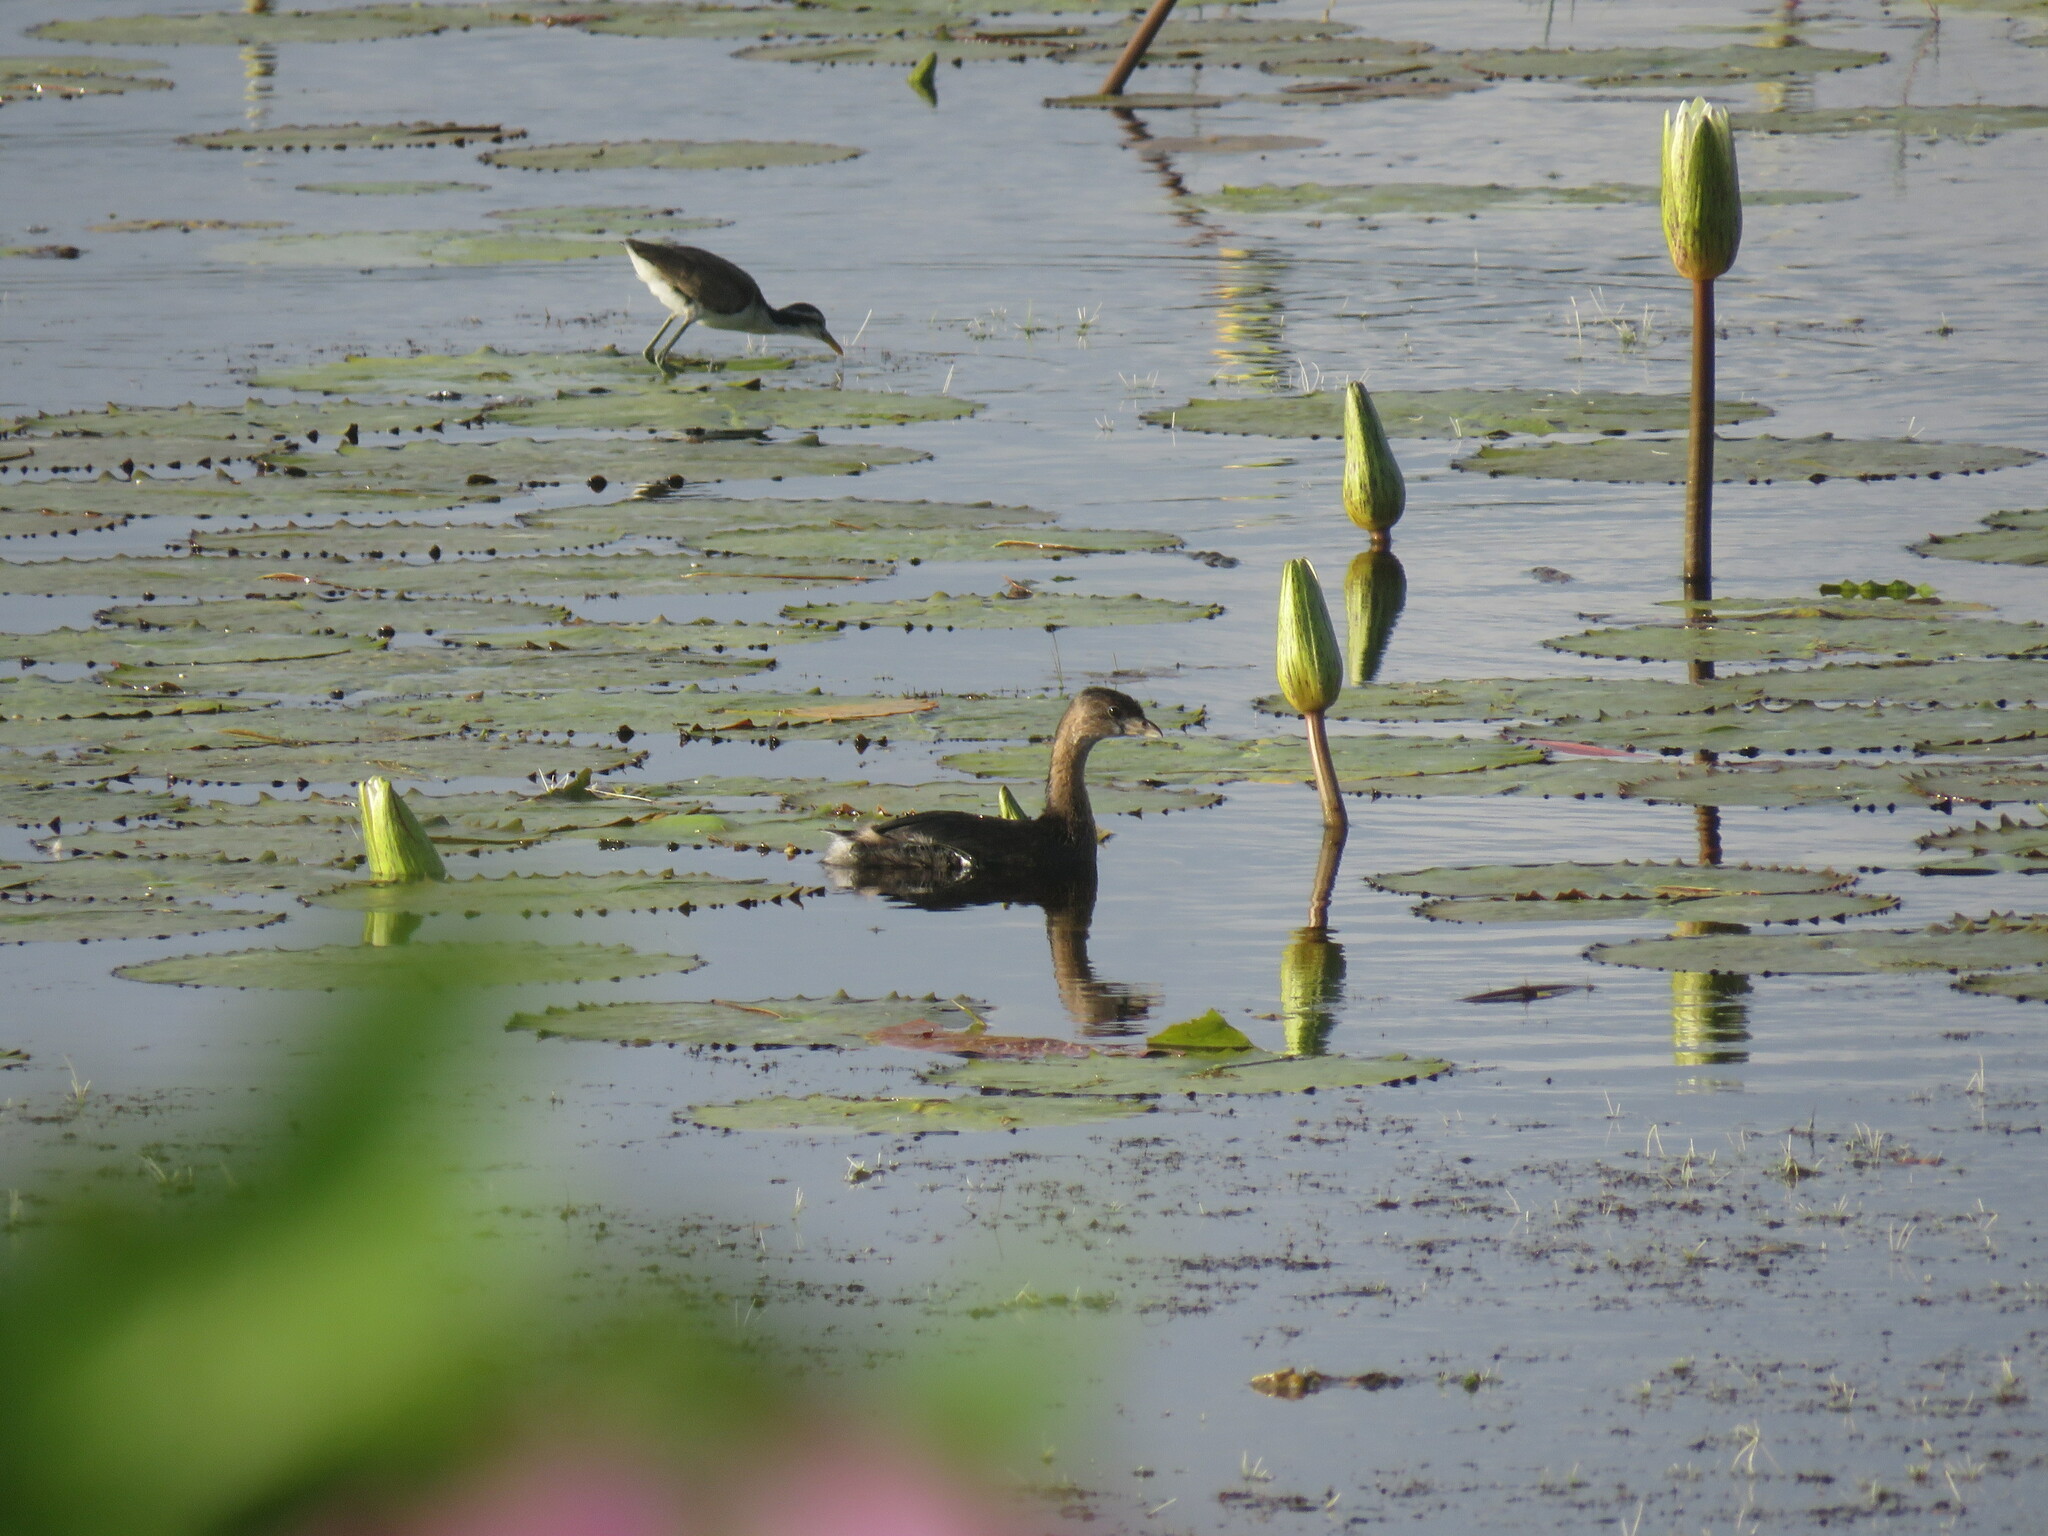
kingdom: Animalia
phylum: Chordata
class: Aves
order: Podicipediformes
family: Podicipedidae
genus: Podilymbus
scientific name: Podilymbus podiceps
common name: Pied-billed grebe
